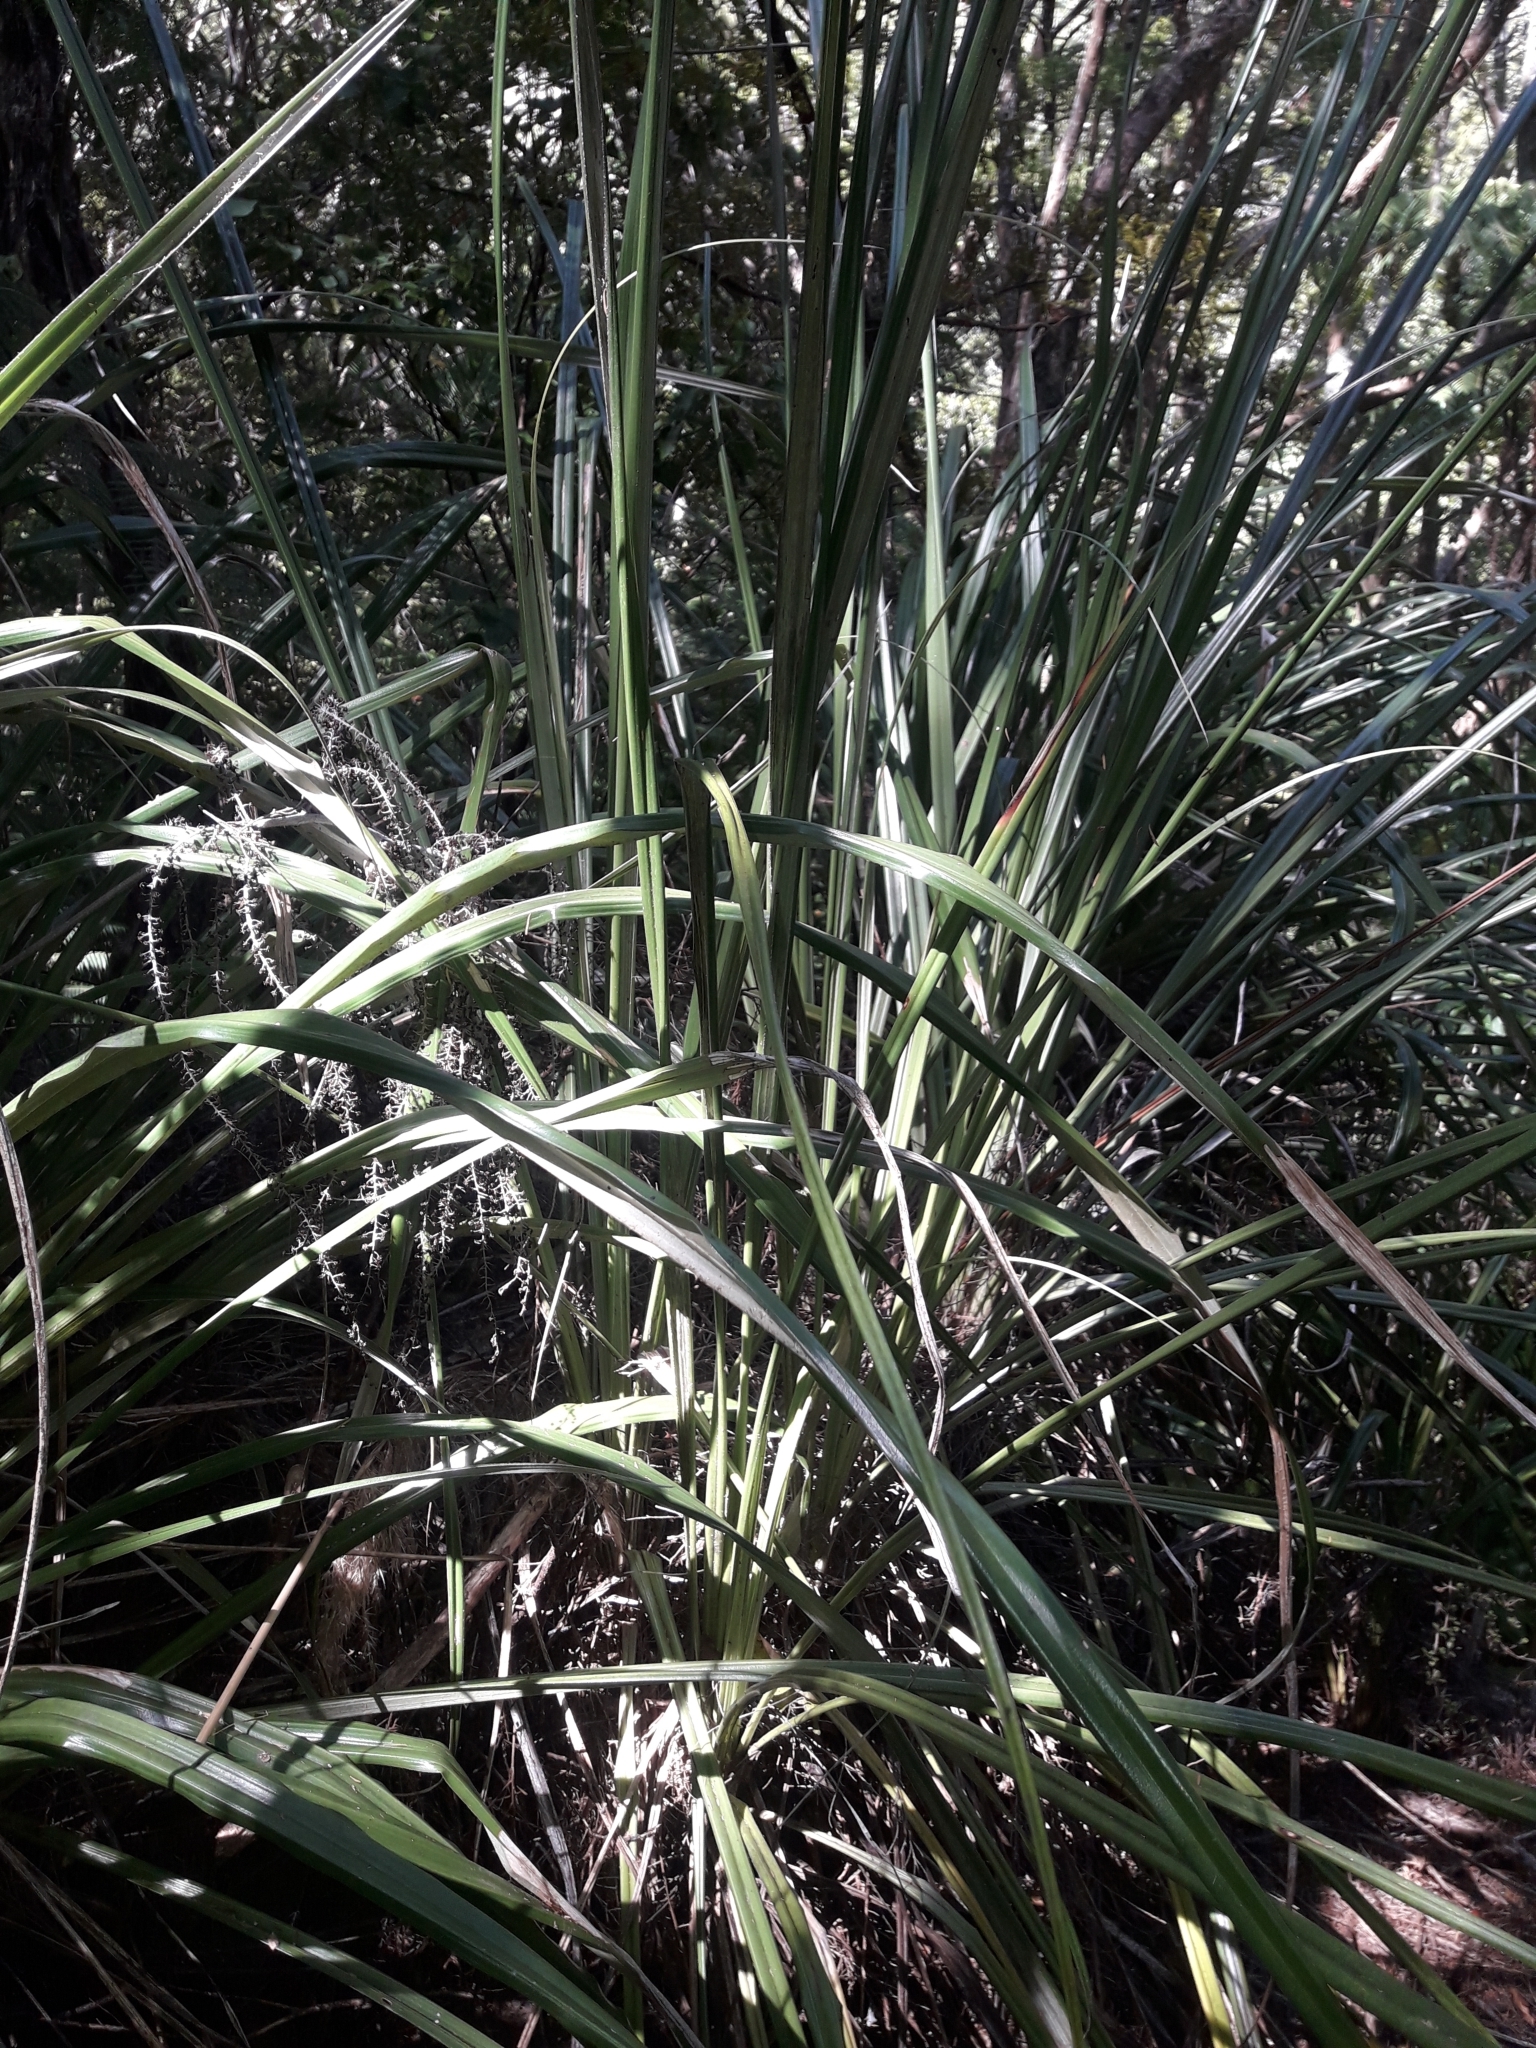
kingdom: Plantae
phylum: Tracheophyta
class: Liliopsida
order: Asparagales
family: Asteliaceae
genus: Astelia
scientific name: Astelia banksii
